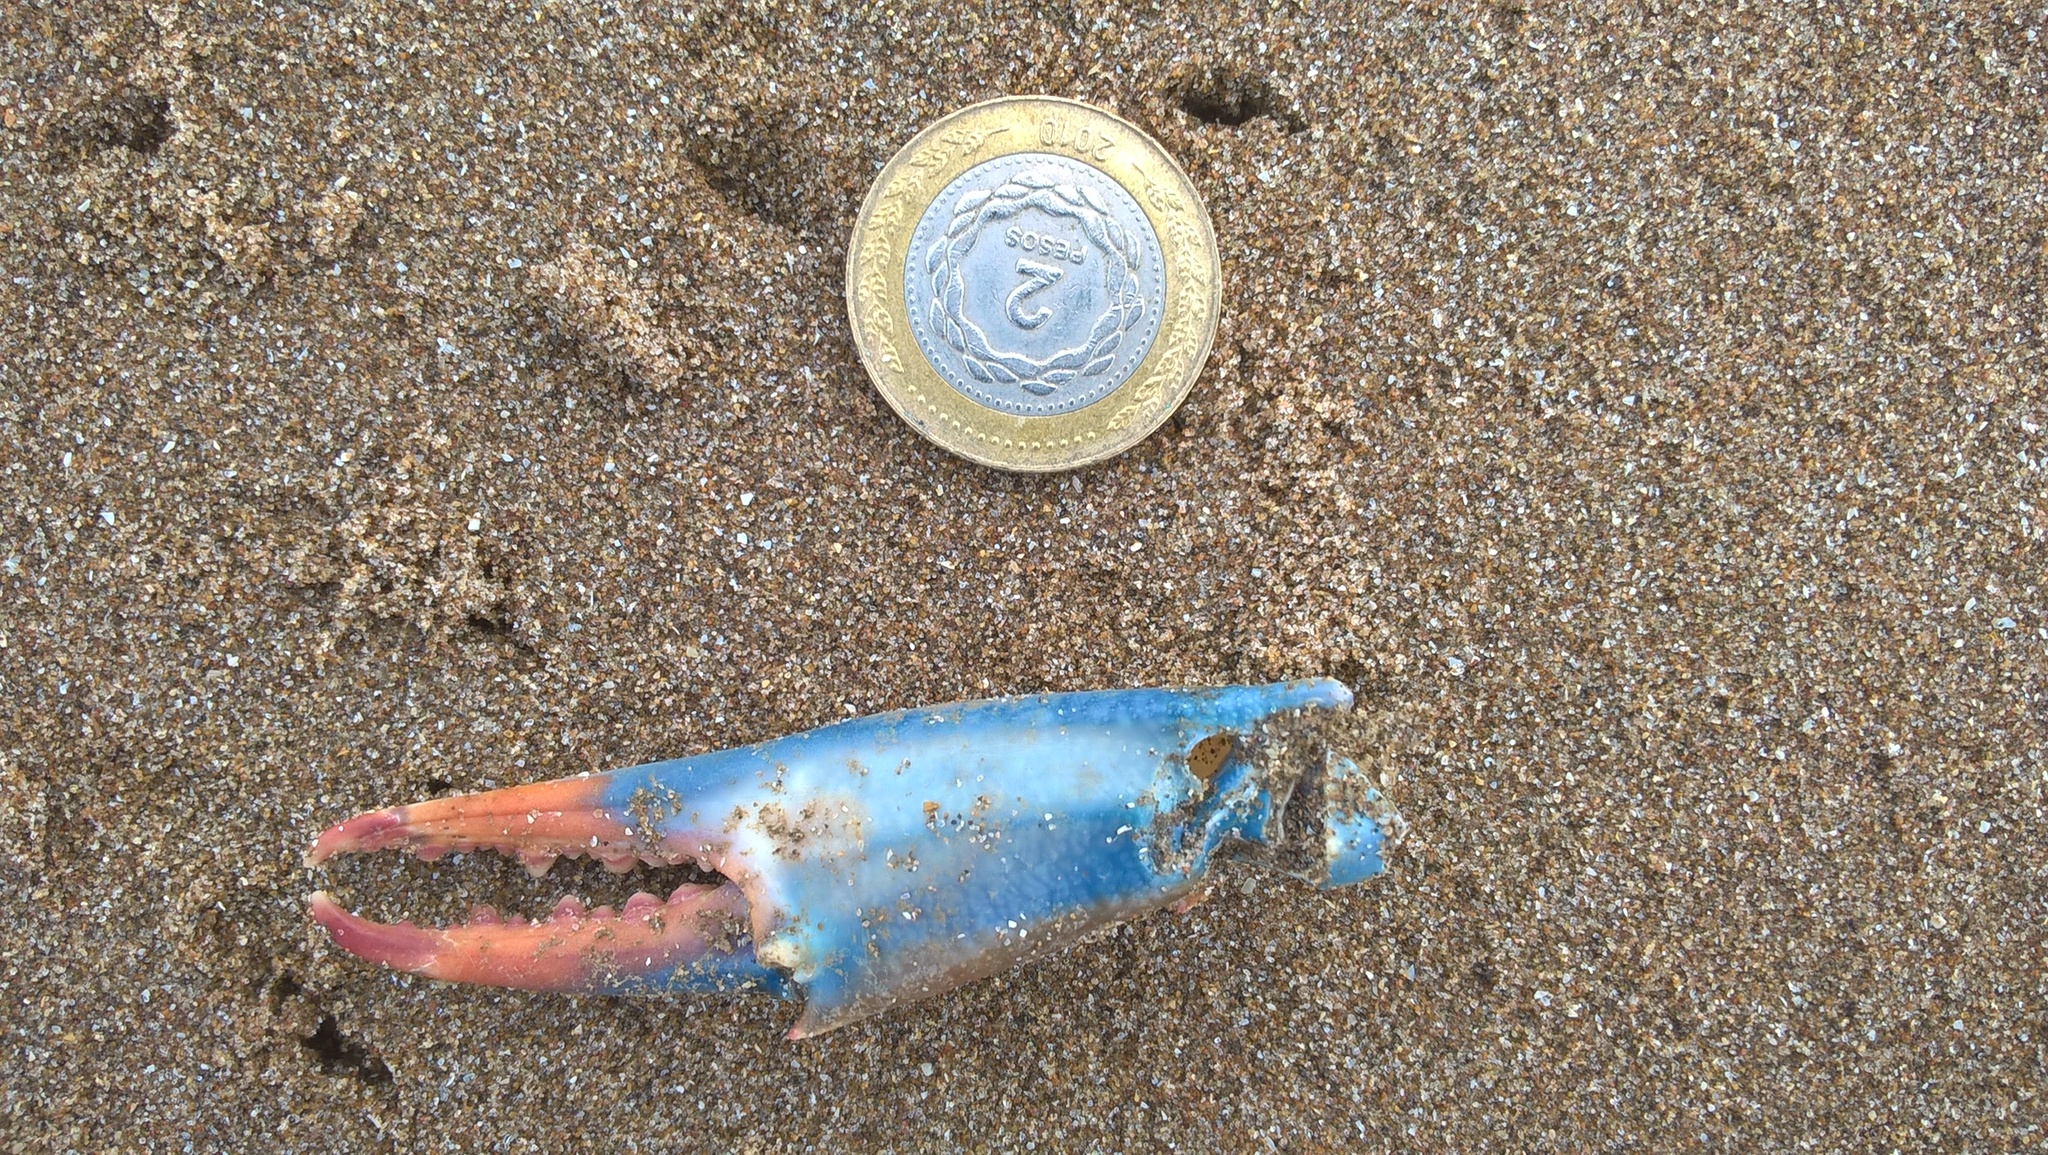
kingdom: Animalia
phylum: Arthropoda
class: Malacostraca
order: Decapoda
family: Portunidae
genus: Callinectes
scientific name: Callinectes sapidus
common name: Blue crab
